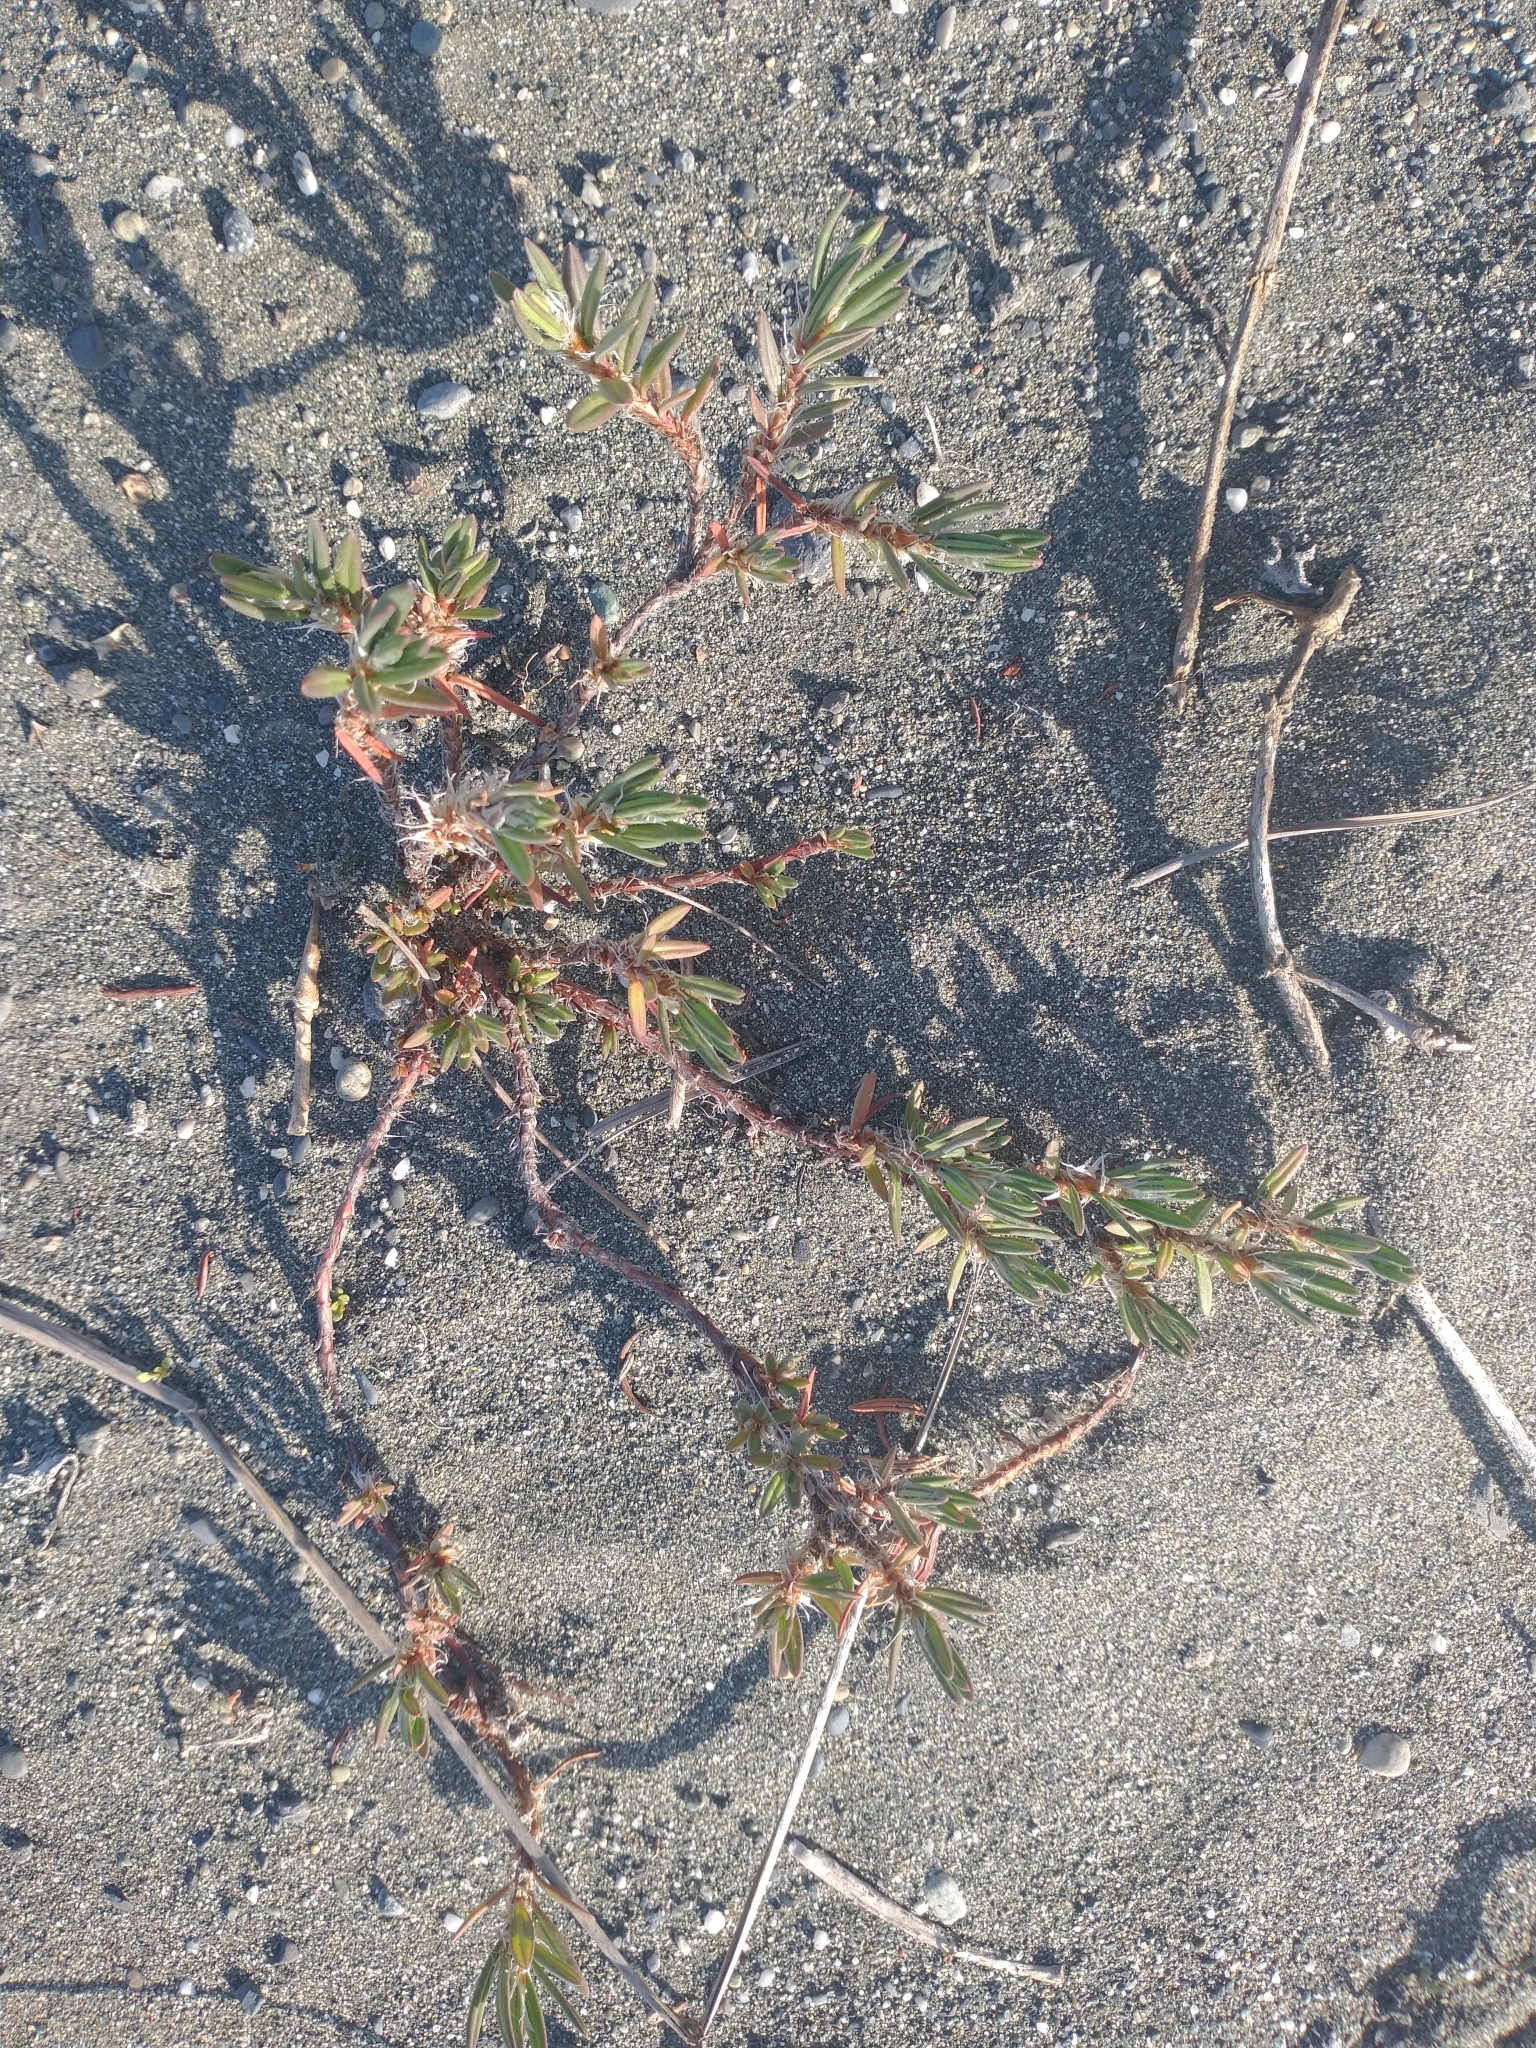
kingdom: Plantae
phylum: Tracheophyta
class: Magnoliopsida
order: Caryophyllales
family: Polygonaceae
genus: Polygonum
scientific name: Polygonum paronychia
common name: Dune knotweed
